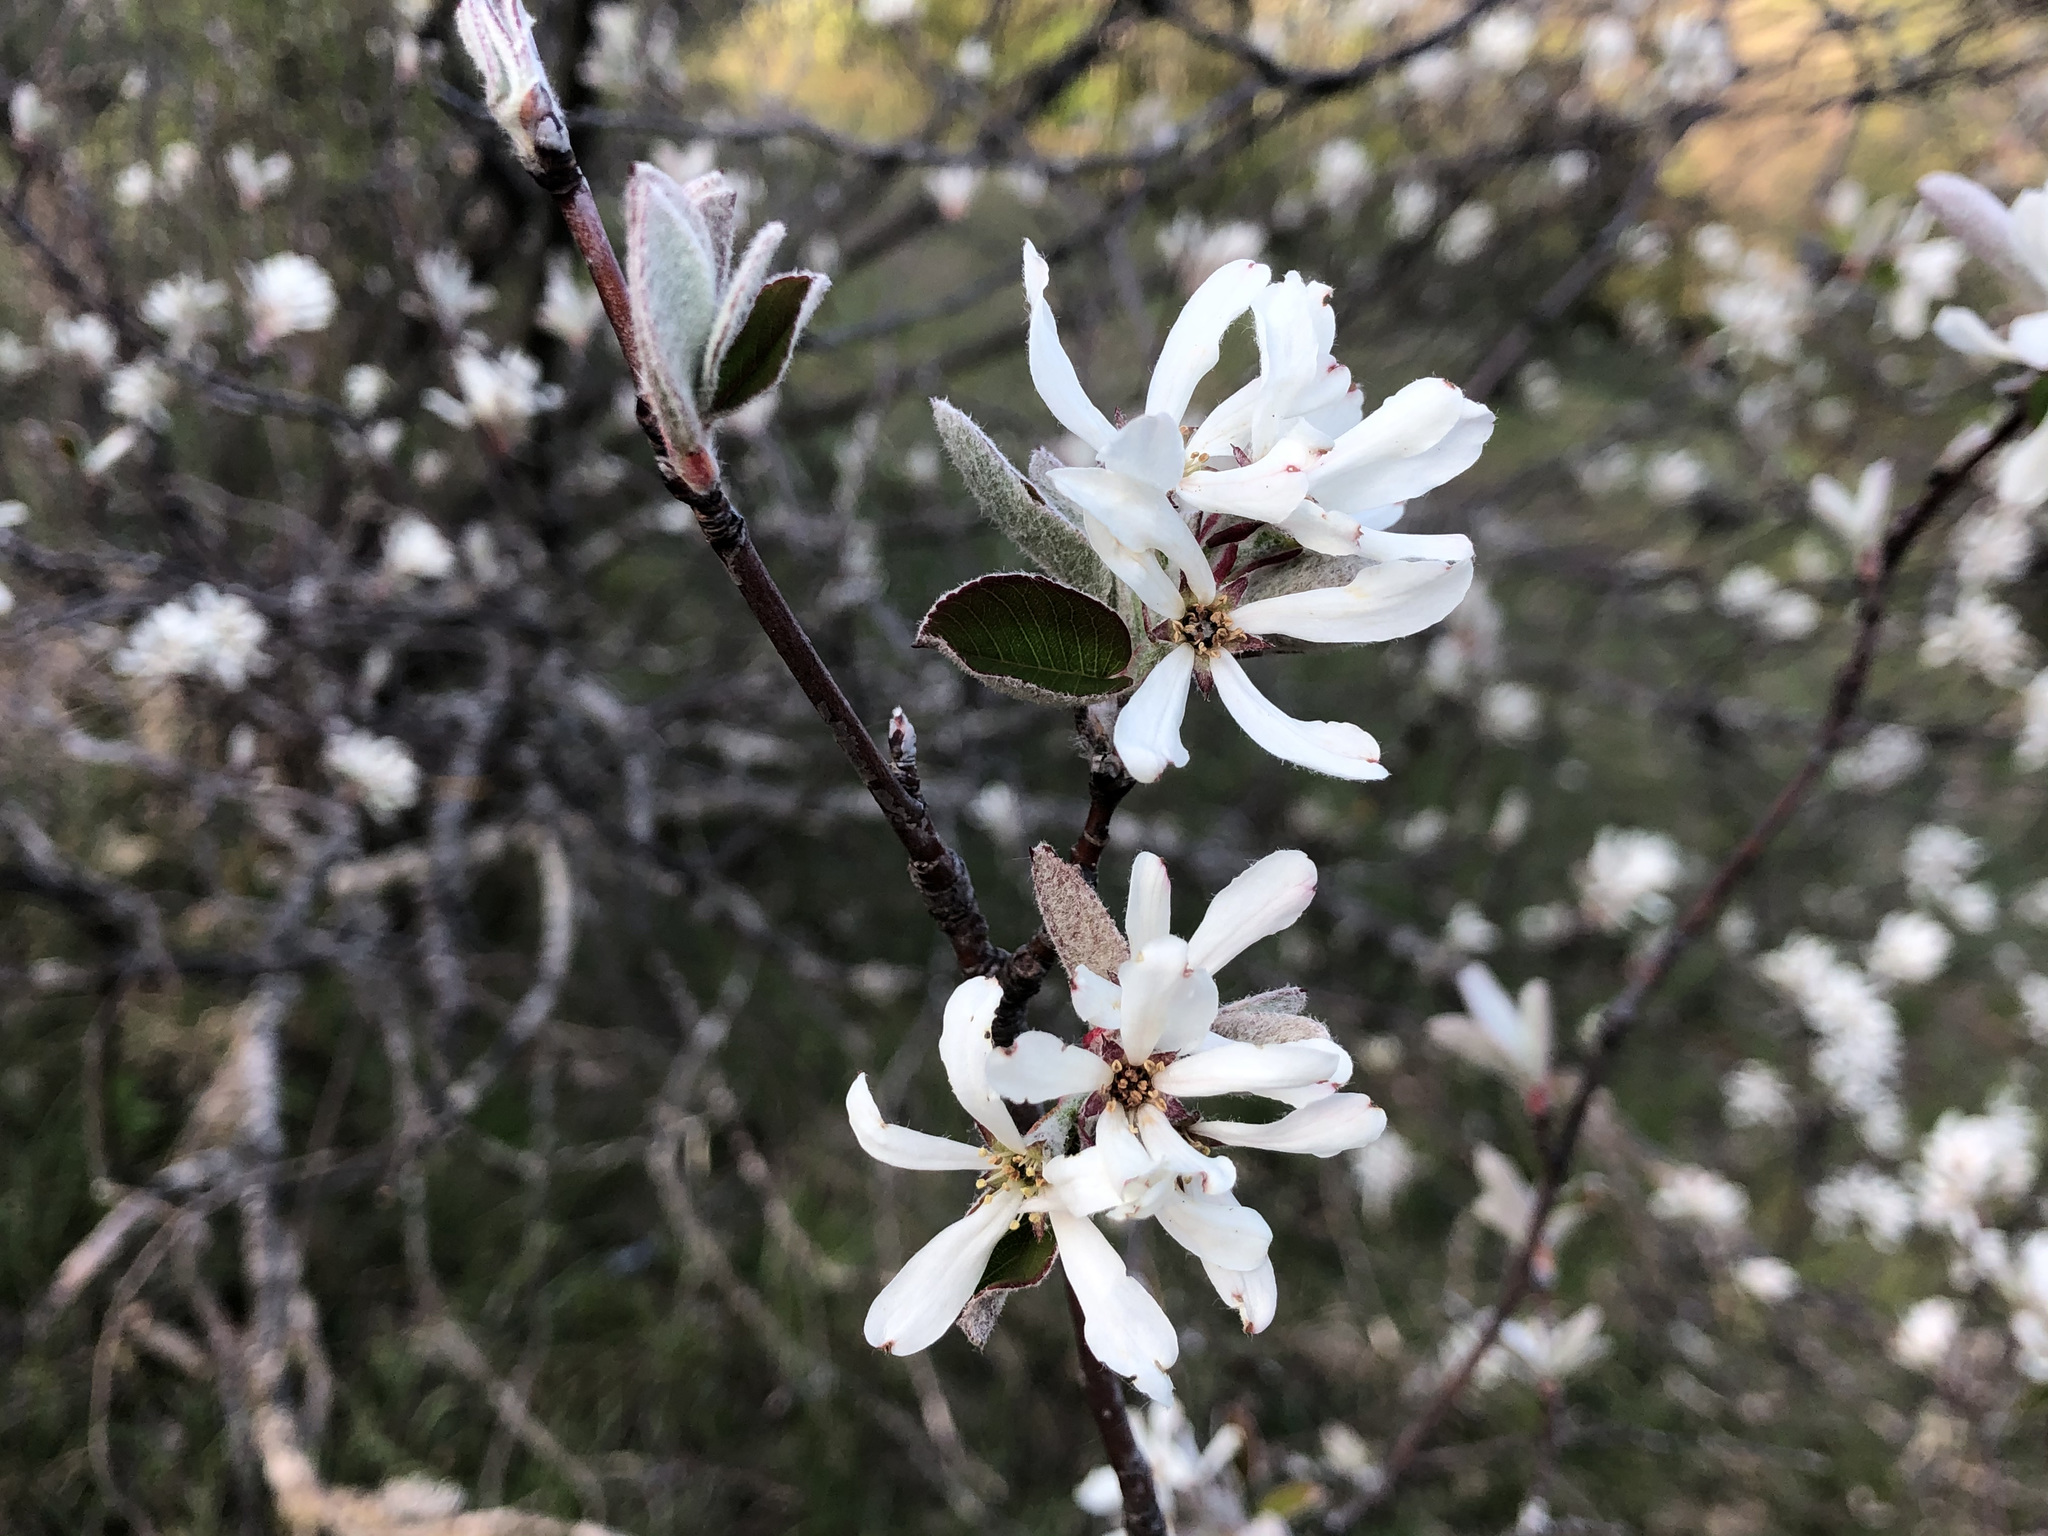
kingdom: Plantae
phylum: Tracheophyta
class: Magnoliopsida
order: Rosales
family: Rosaceae
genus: Amelanchier
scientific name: Amelanchier ovalis
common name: Serviceberry
